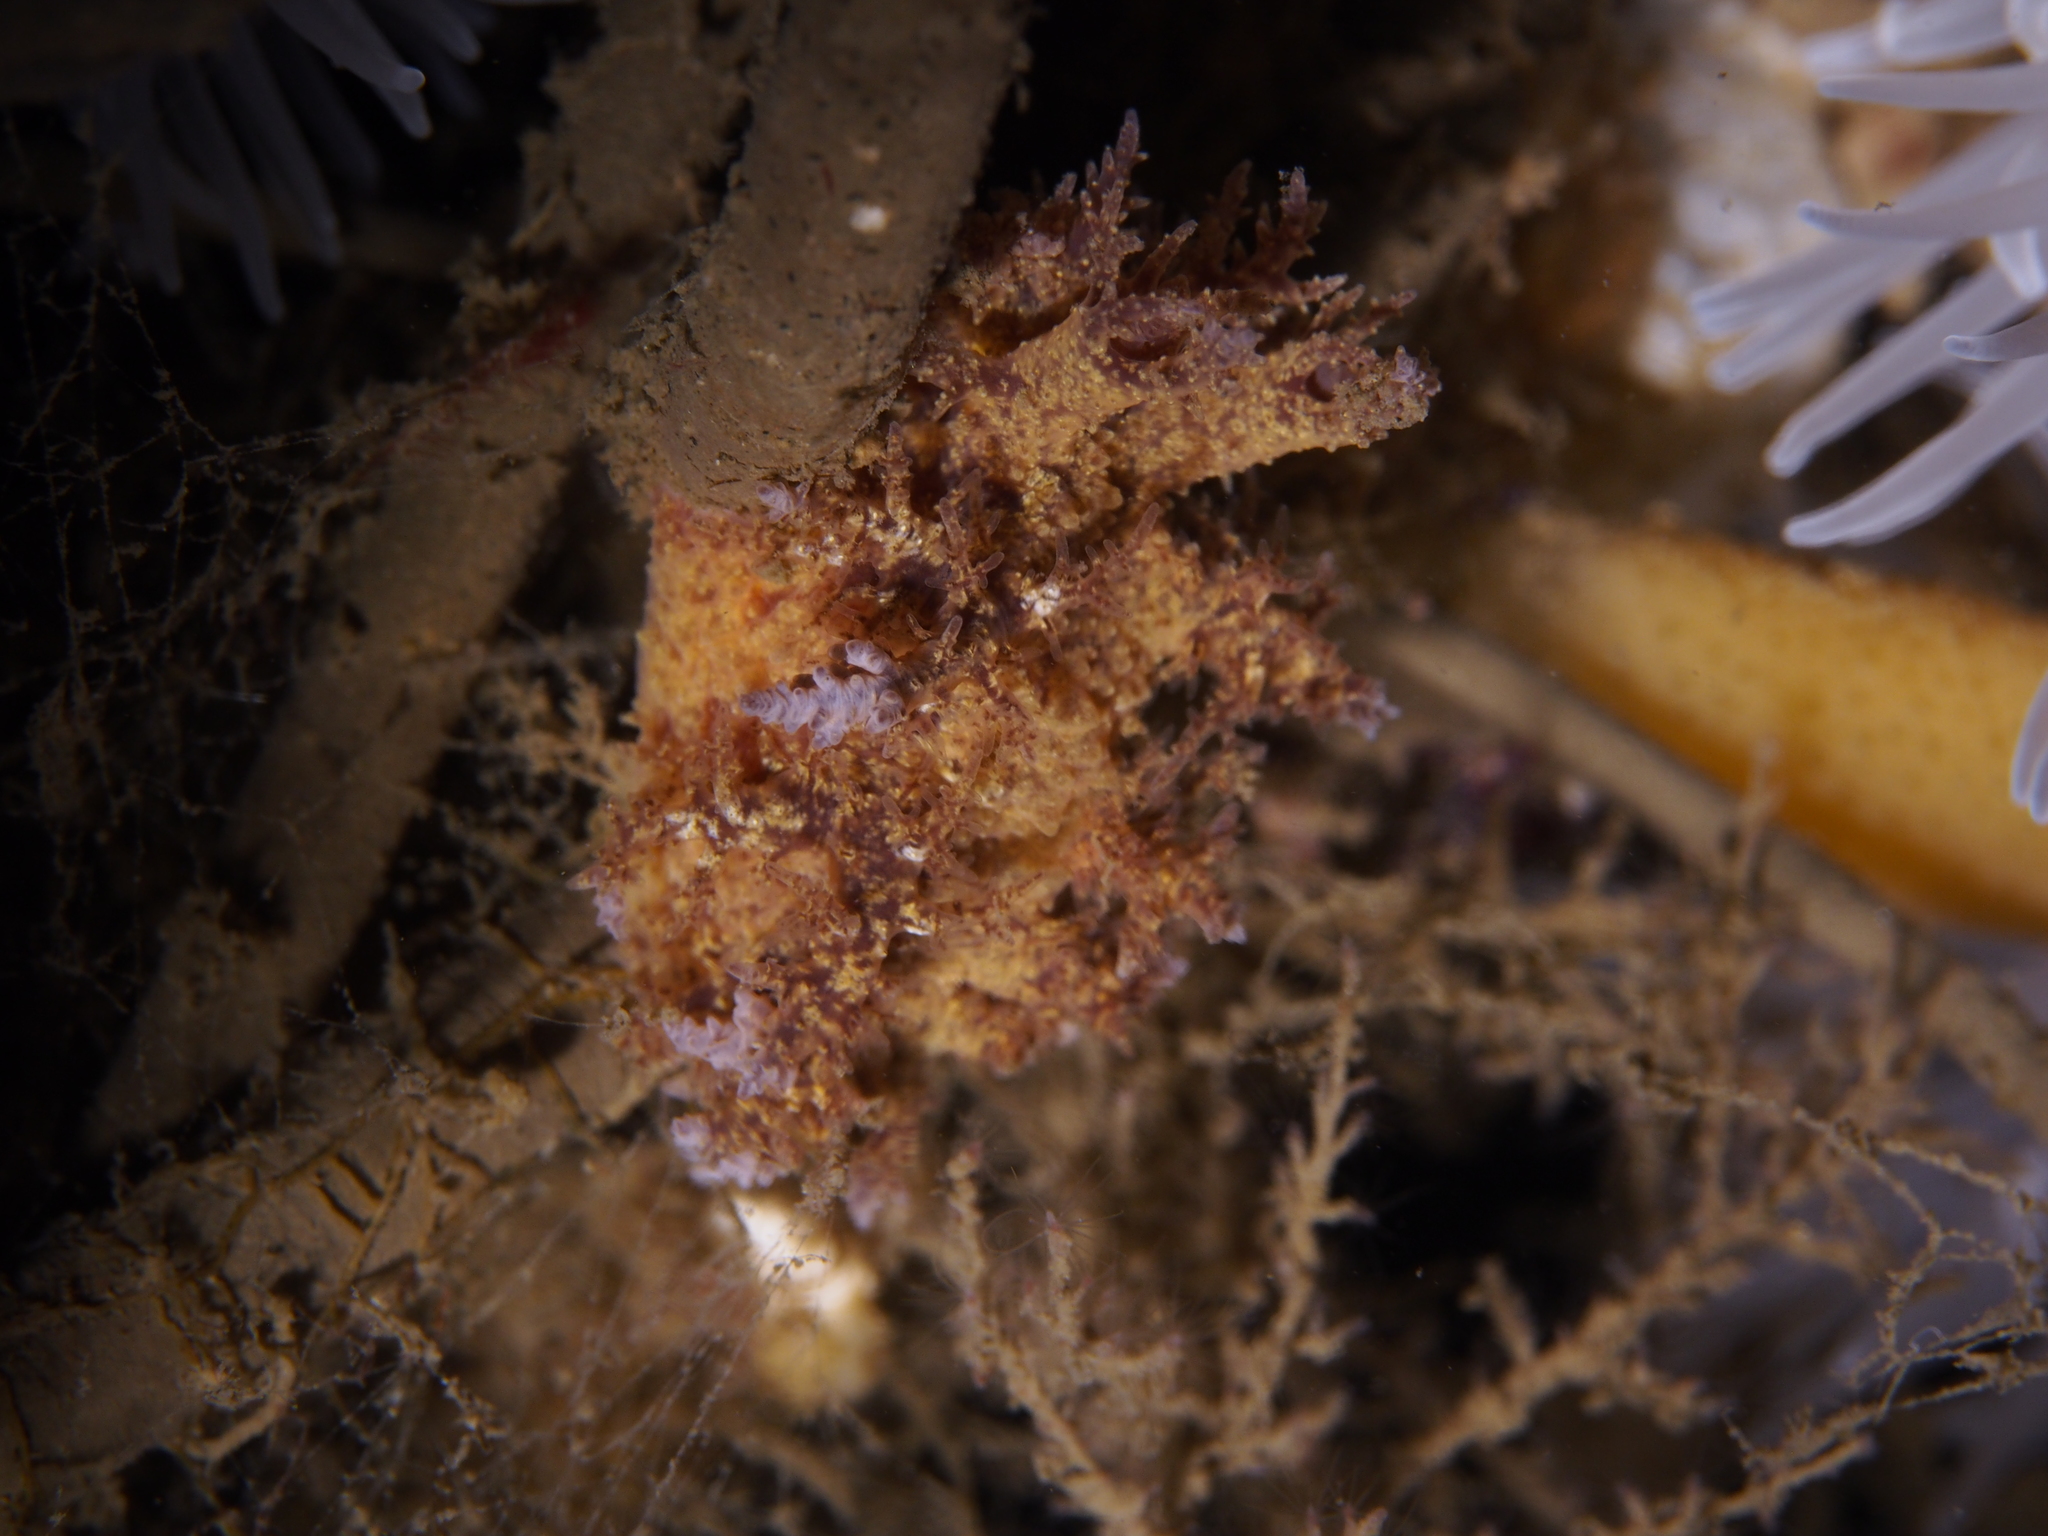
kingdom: Animalia
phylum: Mollusca
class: Gastropoda
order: Nudibranchia
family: Dendronotidae
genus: Dendronotus
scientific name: Dendronotus europaeus
